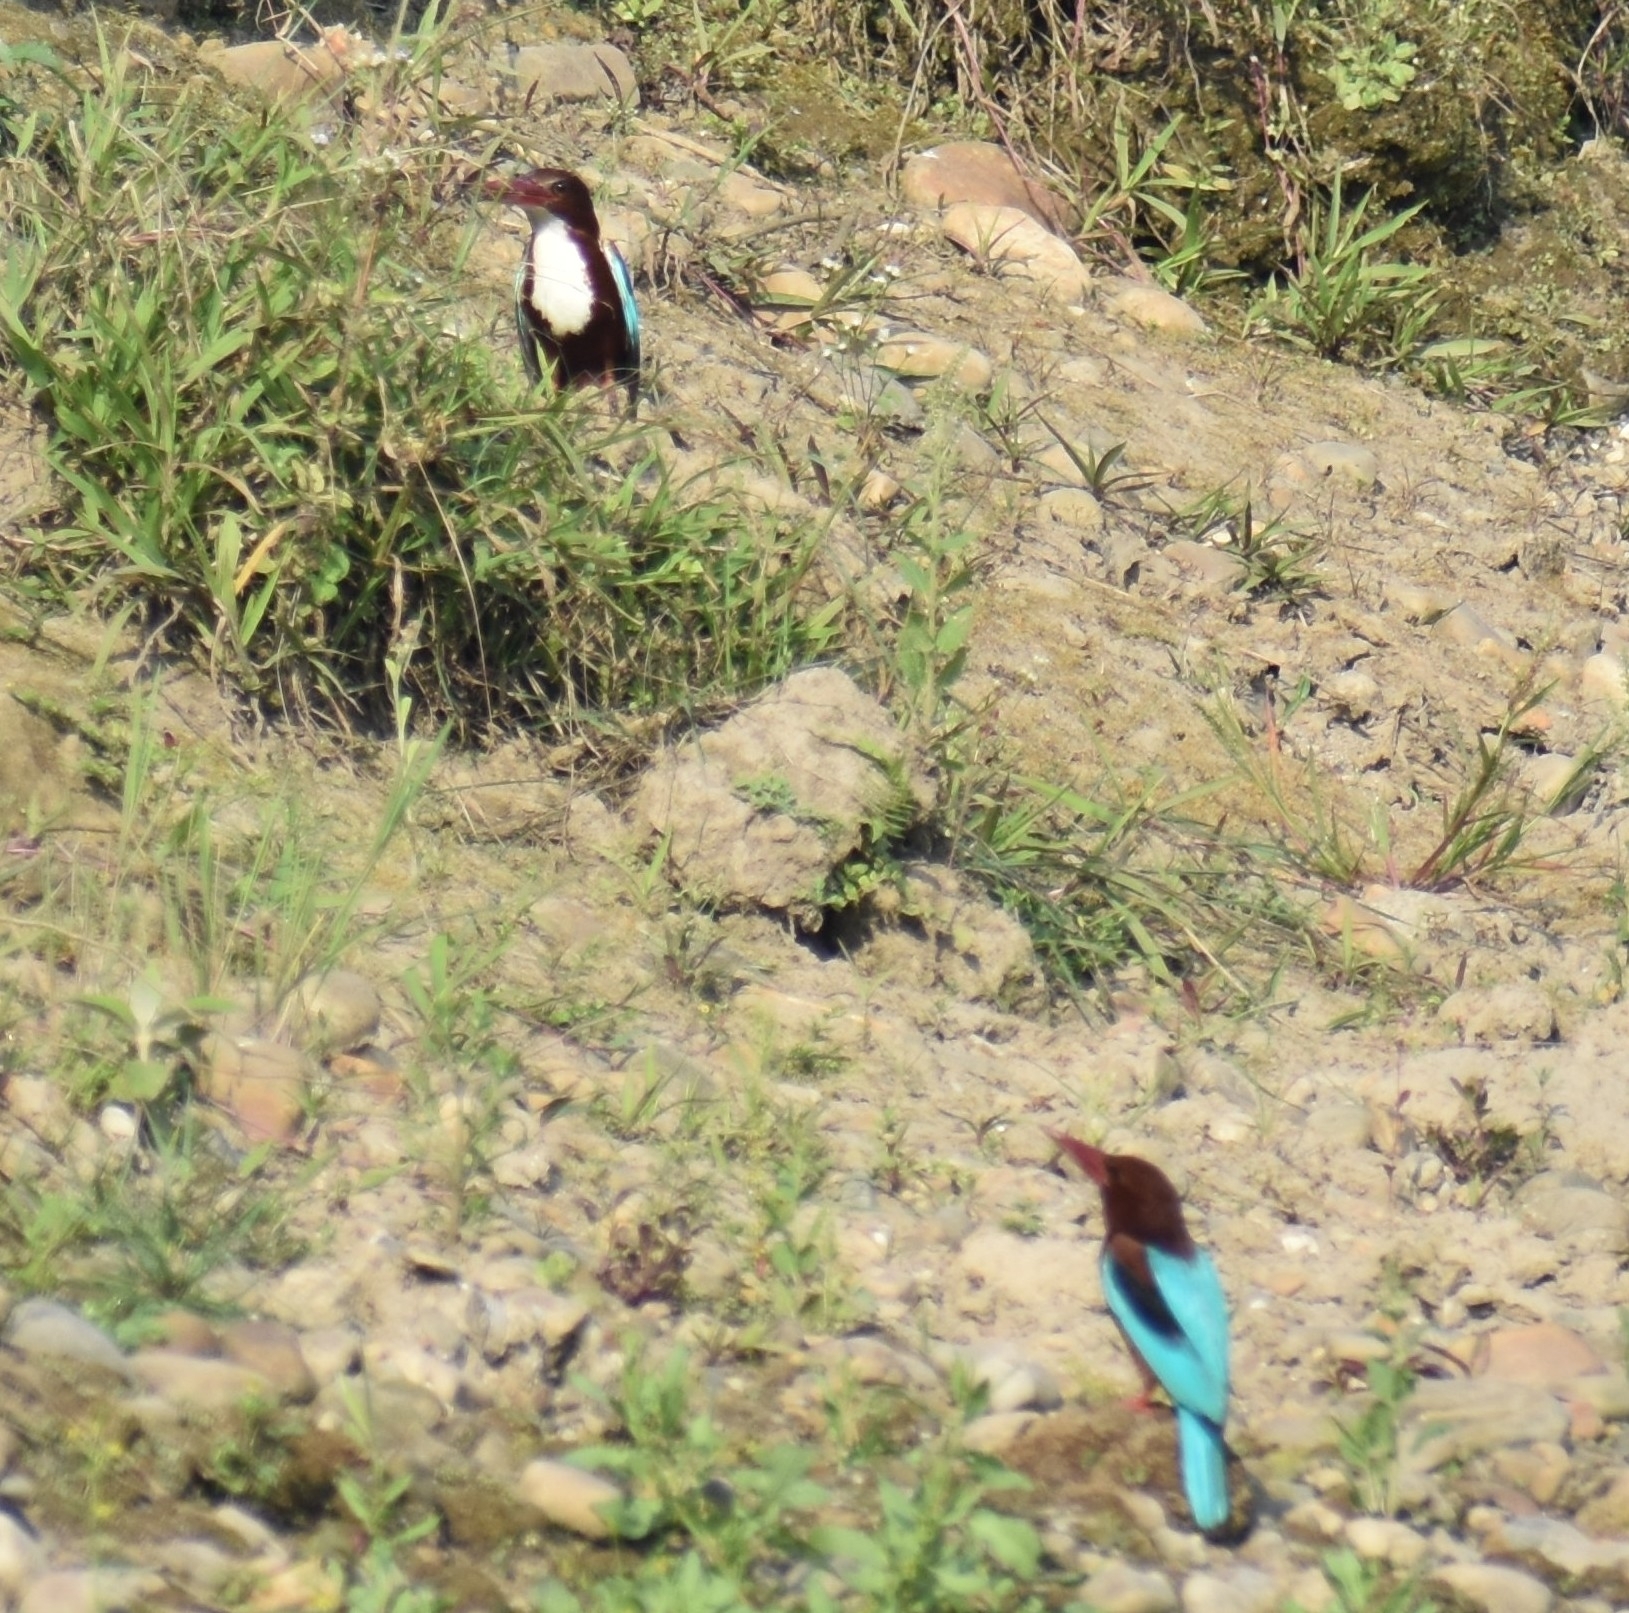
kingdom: Animalia
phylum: Chordata
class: Aves
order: Coraciiformes
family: Alcedinidae
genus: Halcyon
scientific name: Halcyon smyrnensis
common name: White-throated kingfisher
